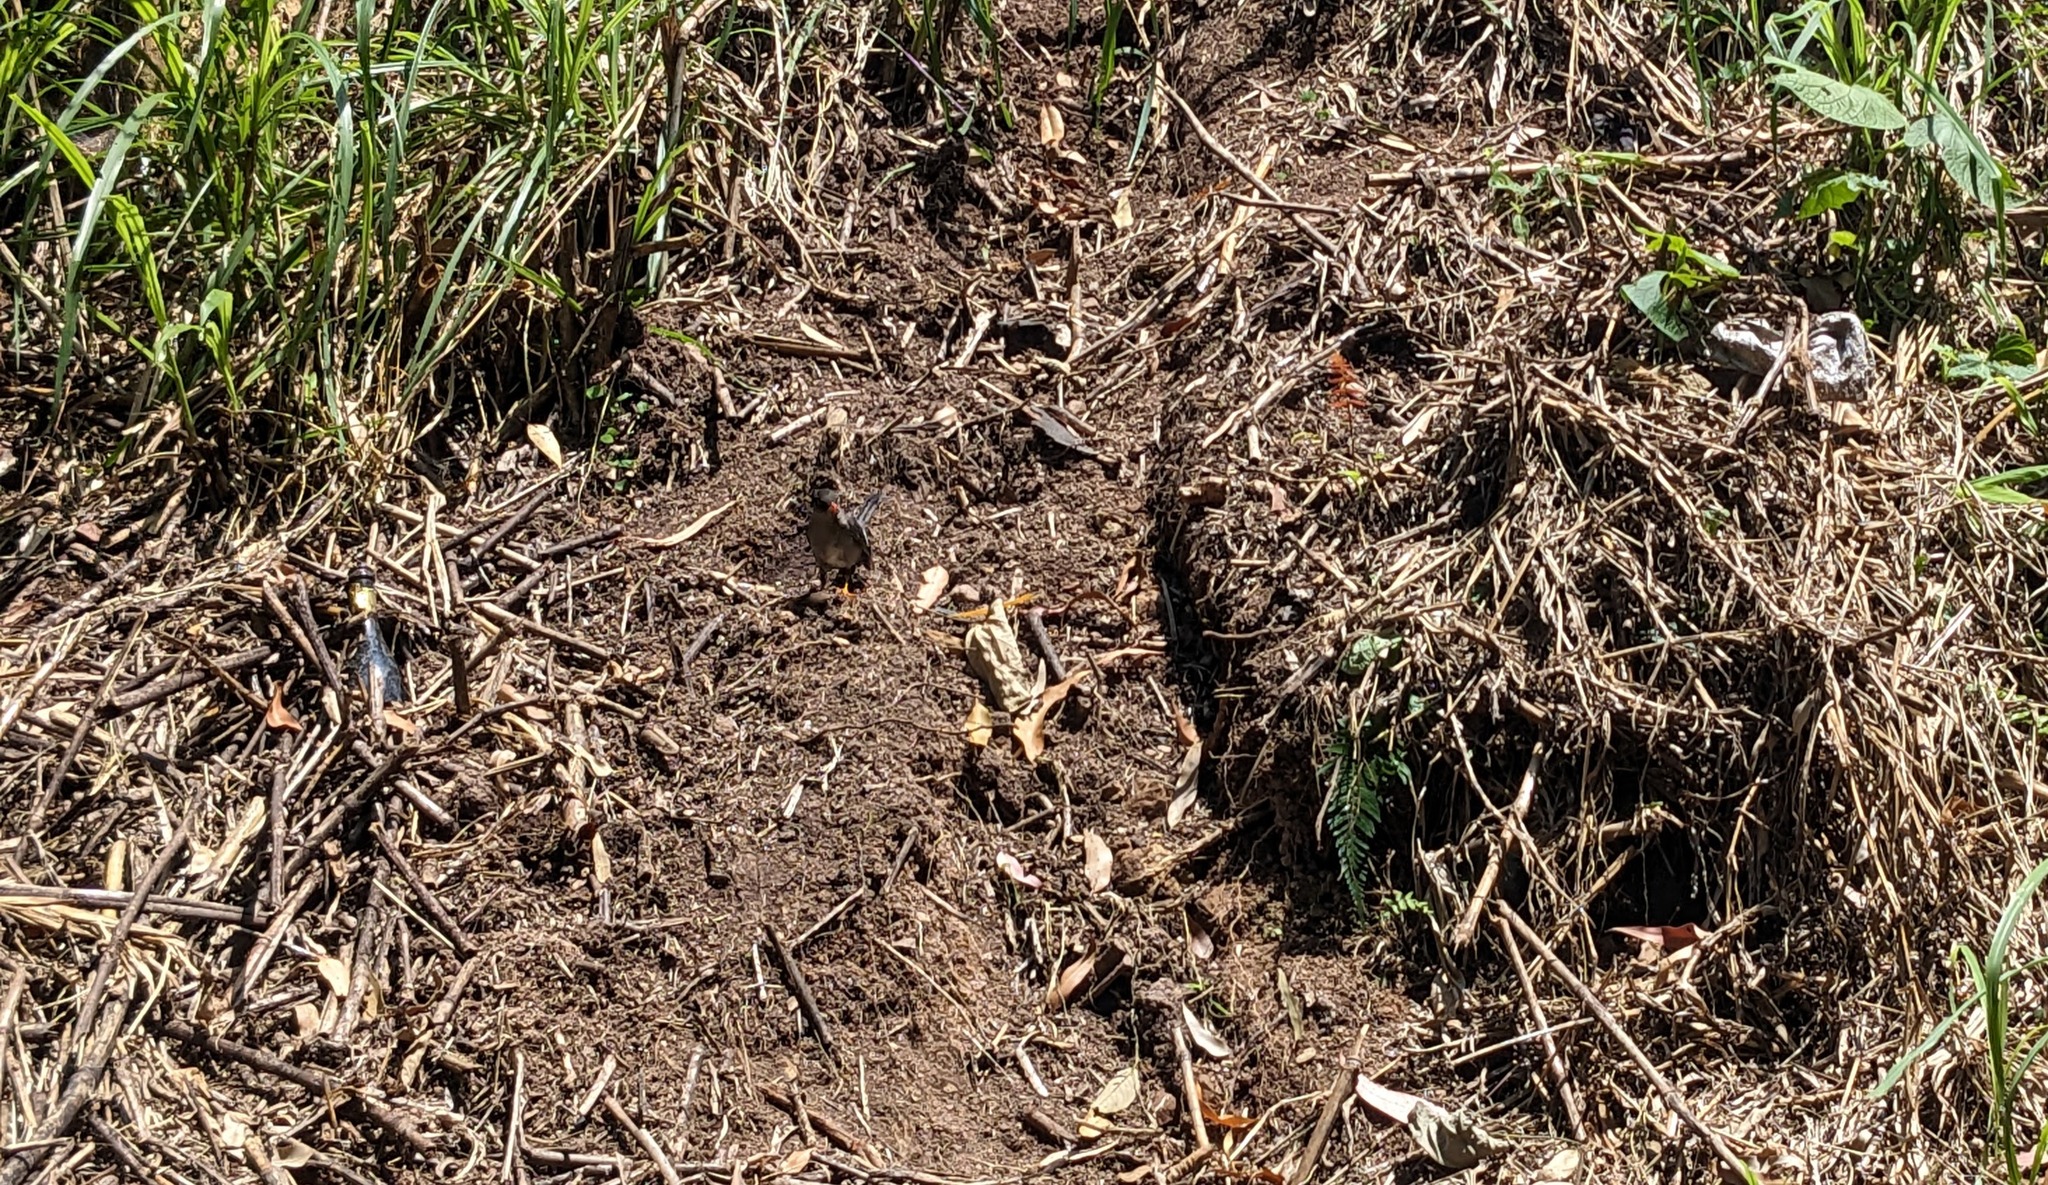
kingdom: Animalia
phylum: Chordata
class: Aves
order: Passeriformes
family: Turdidae
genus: Turdus
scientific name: Turdus aurantius
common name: White-chinned thrush
